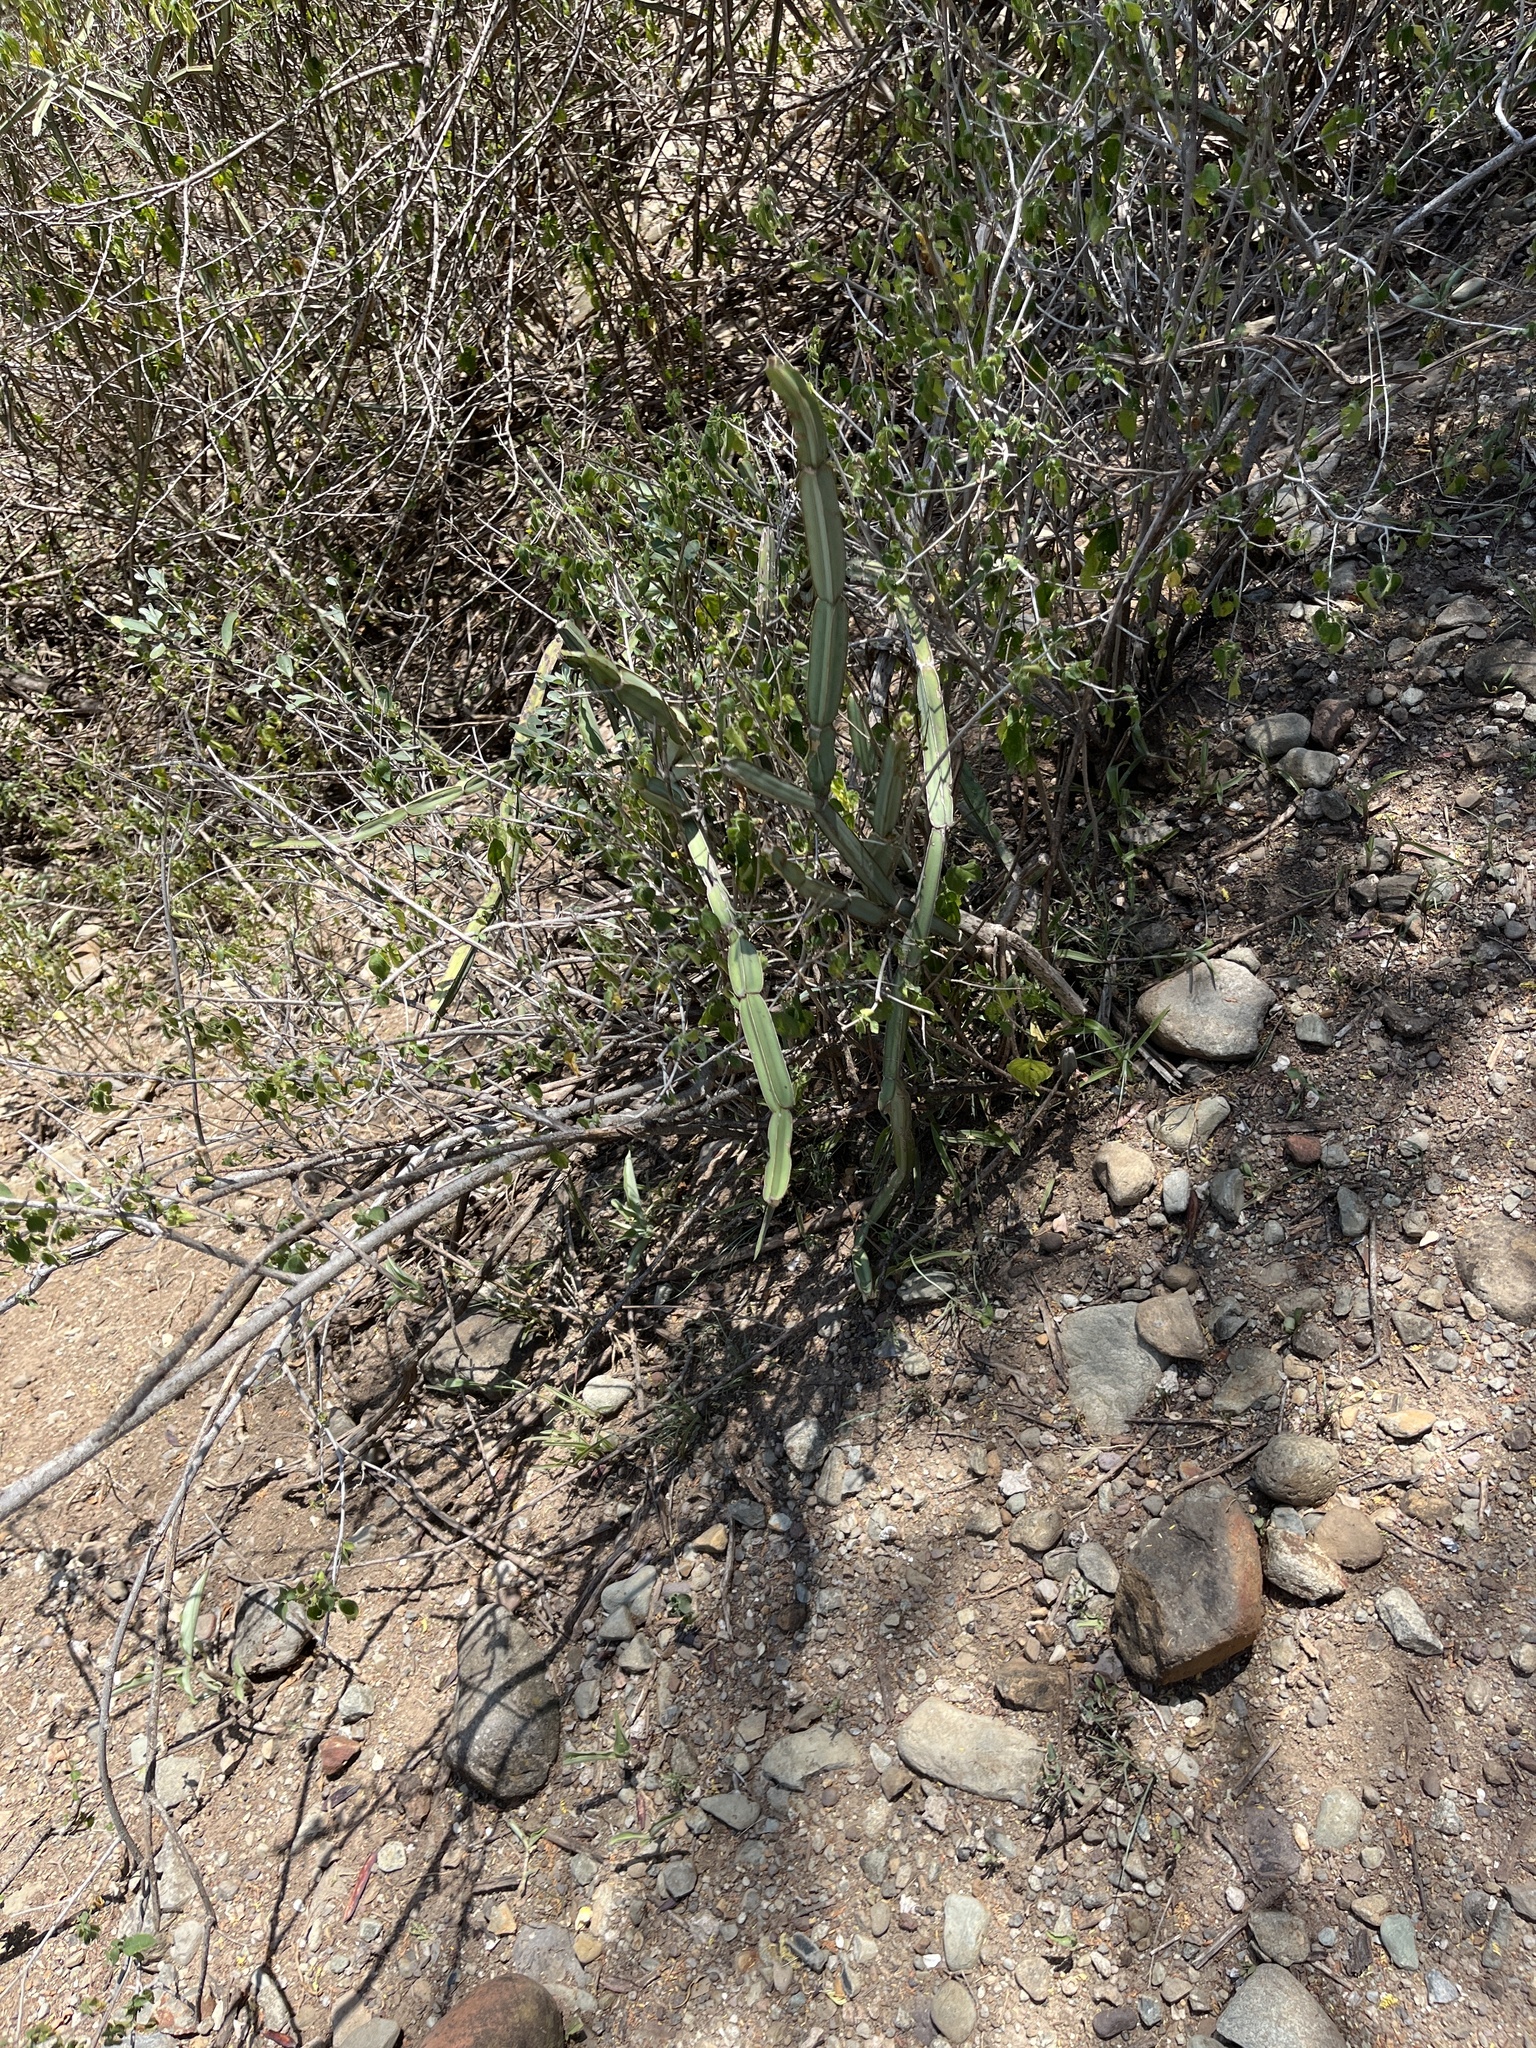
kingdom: Plantae
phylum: Tracheophyta
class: Magnoliopsida
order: Vitales
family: Vitaceae
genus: Cissus
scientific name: Cissus quadrangularis
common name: Veldt-grape
